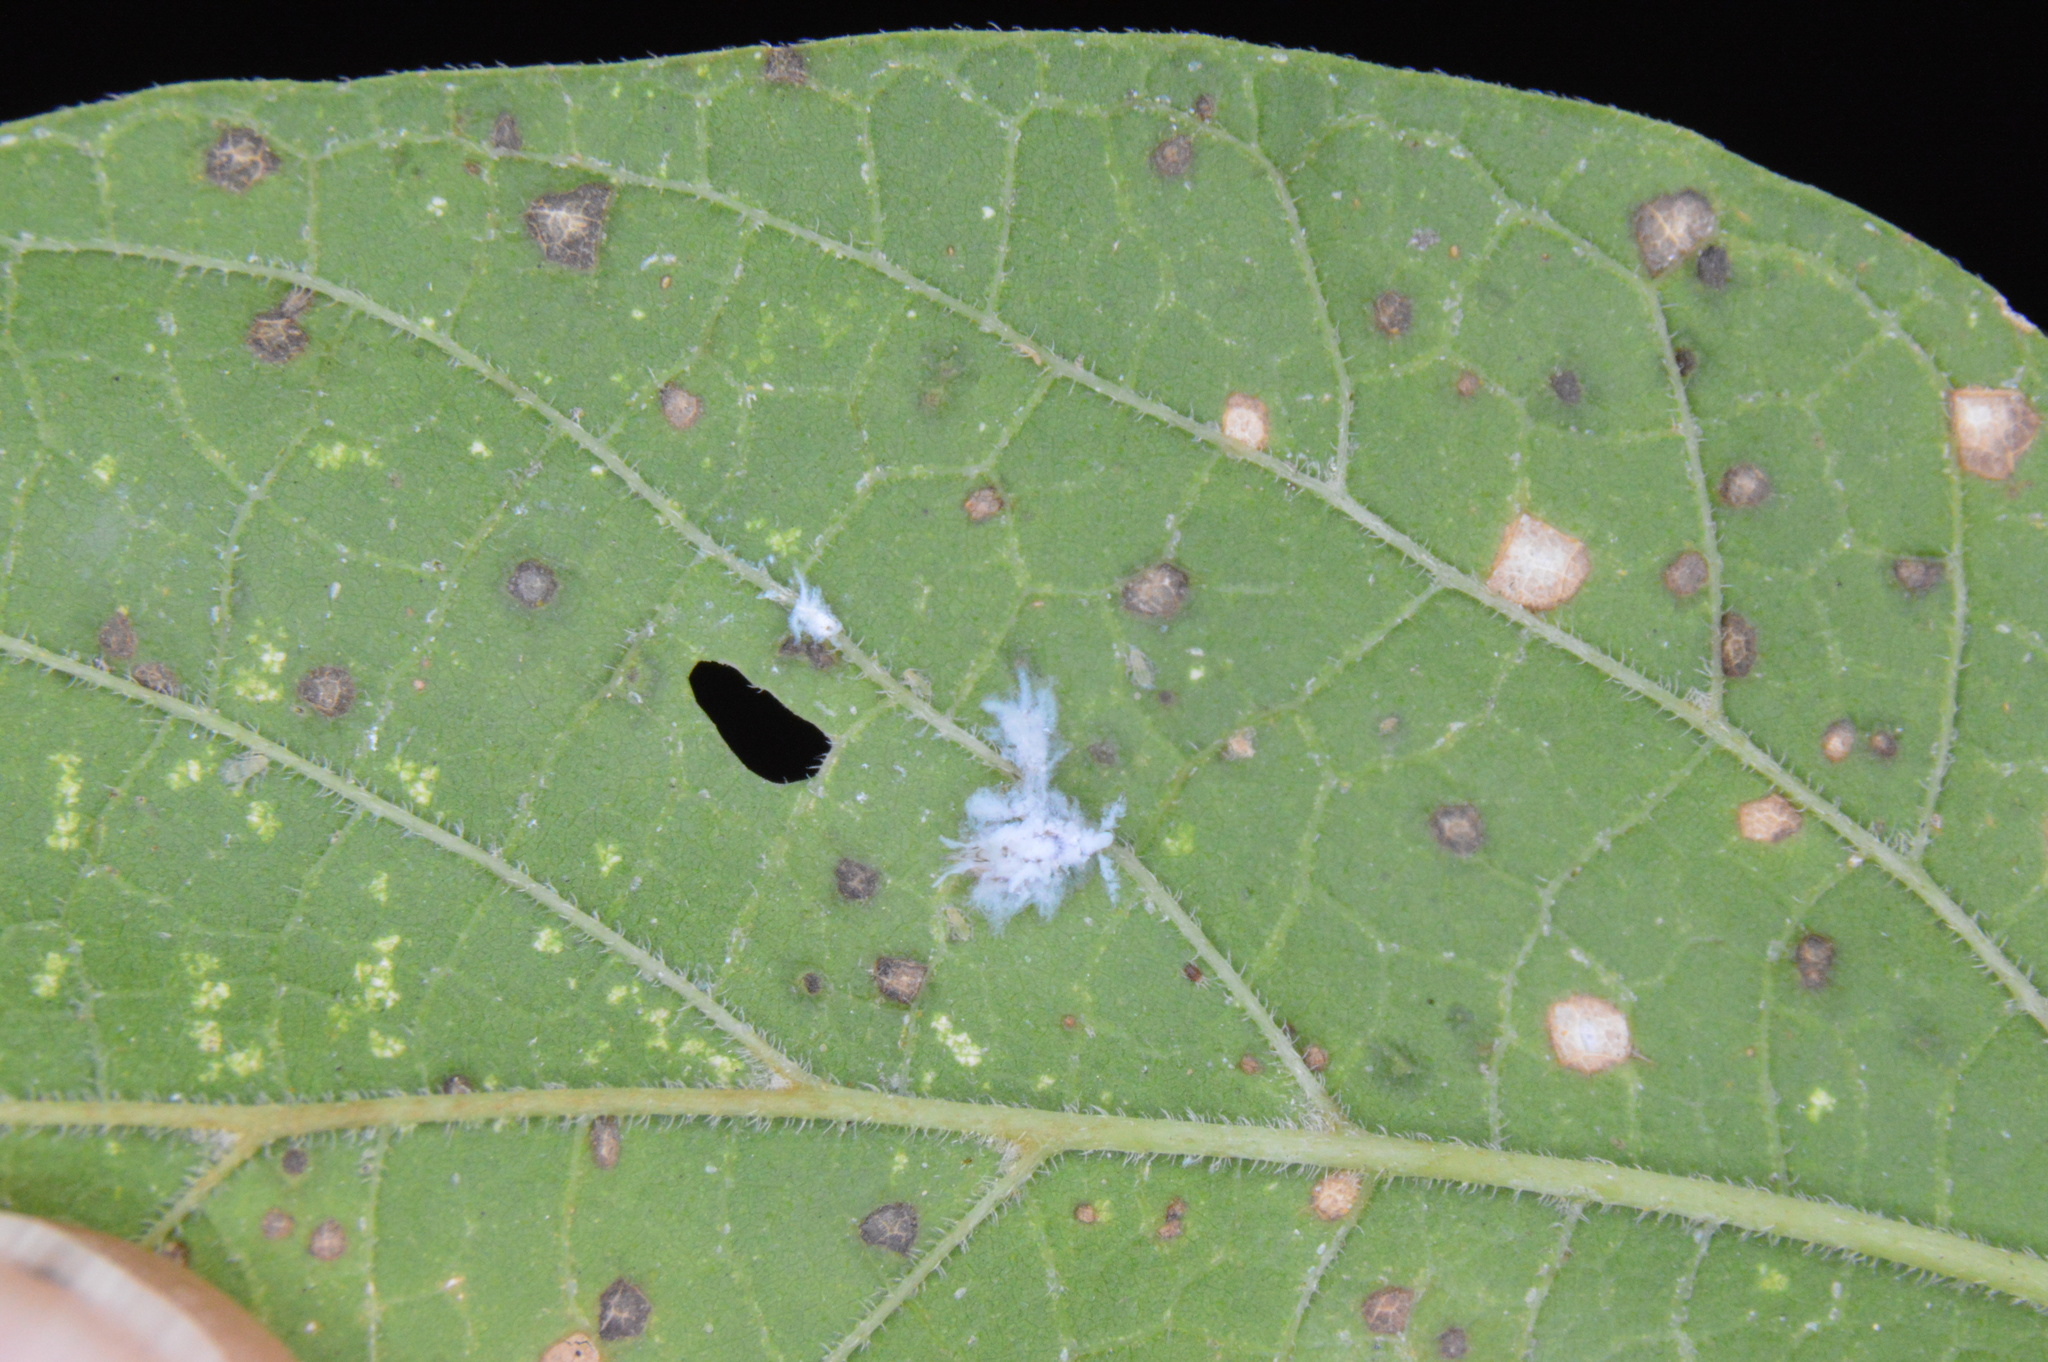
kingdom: Animalia
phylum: Arthropoda
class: Insecta
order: Hemiptera
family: Aphididae
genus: Shivaphis
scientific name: Shivaphis celti
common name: Asian wooly hackberry aphid
